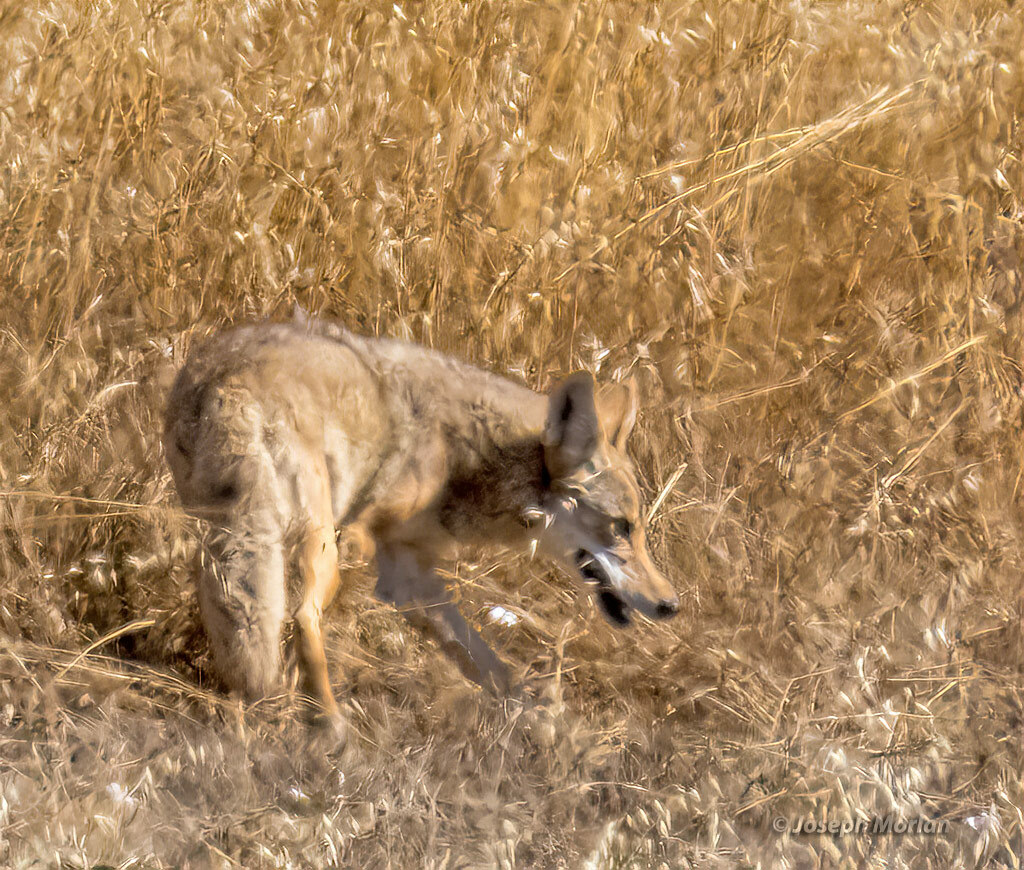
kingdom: Animalia
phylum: Chordata
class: Mammalia
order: Carnivora
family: Canidae
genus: Canis
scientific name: Canis latrans
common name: Coyote
